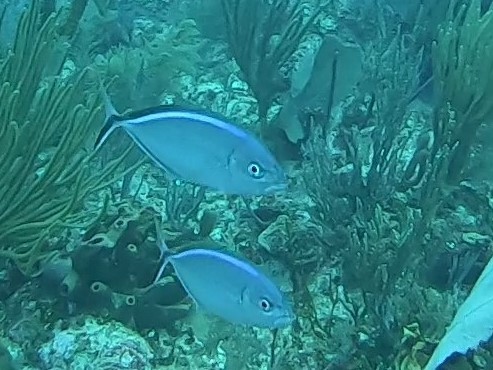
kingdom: Animalia
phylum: Chordata
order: Perciformes
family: Carangidae
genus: Caranx
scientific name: Caranx ruber
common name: Bar jack
